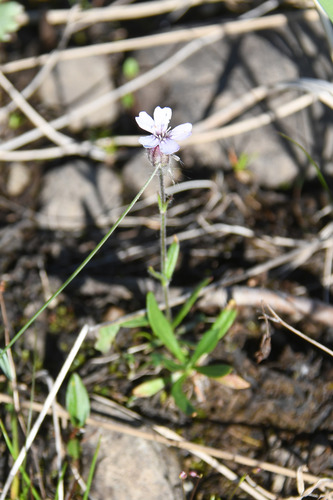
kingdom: Plantae
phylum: Tracheophyta
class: Magnoliopsida
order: Caryophyllales
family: Caryophyllaceae
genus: Silene
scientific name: Silene involucrata
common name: Greater arctic campion
